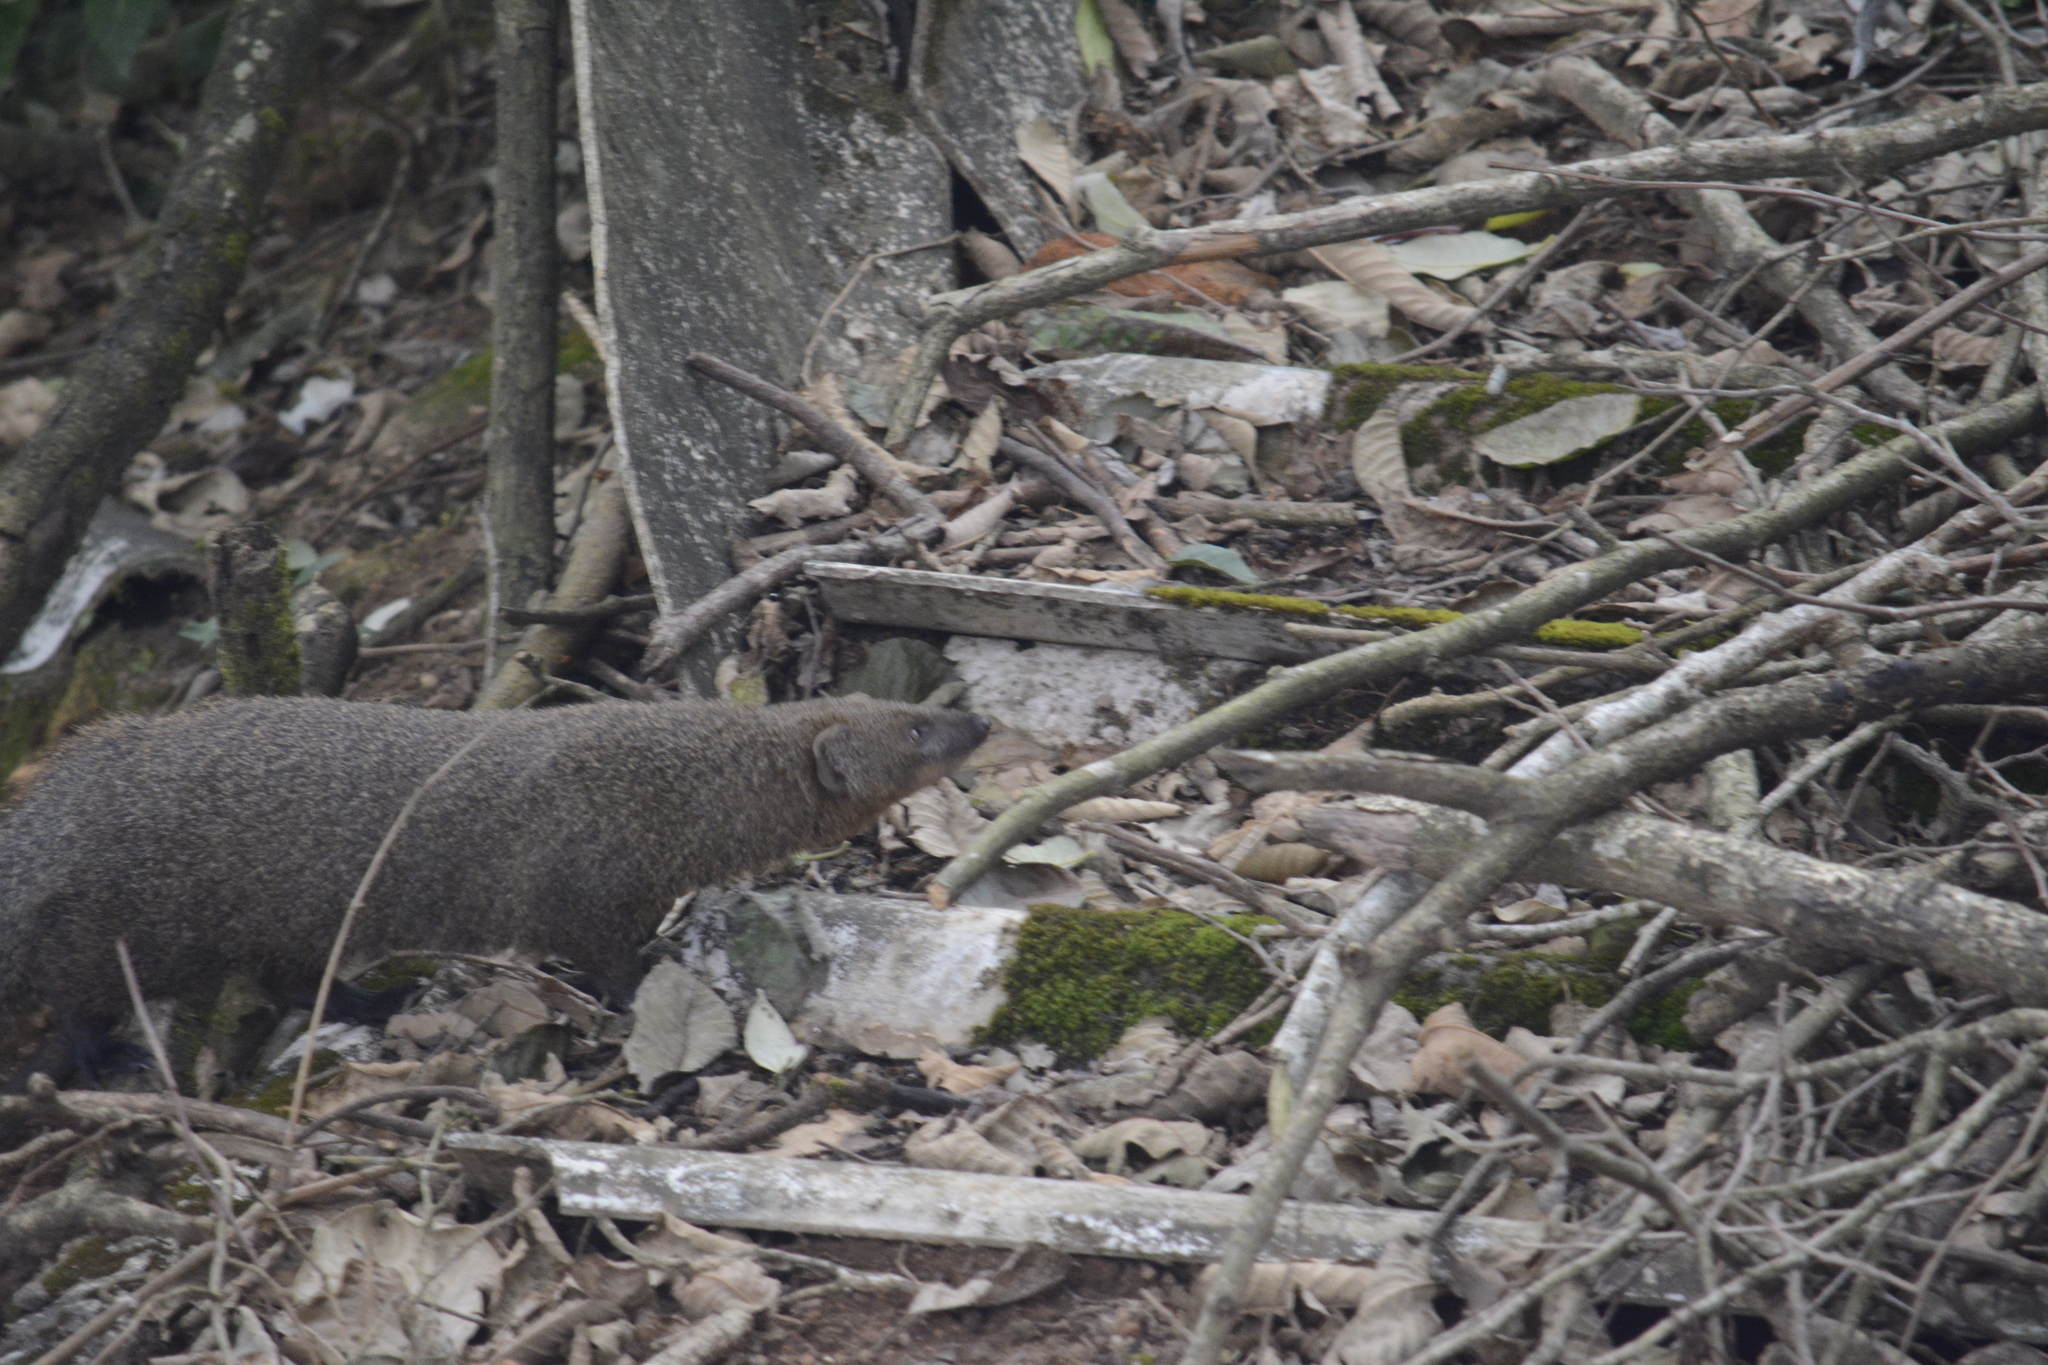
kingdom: Animalia
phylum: Chordata
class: Mammalia
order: Carnivora
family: Herpestidae
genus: Herpestes
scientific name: Herpestes fuscus
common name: Indian brown mongoose
